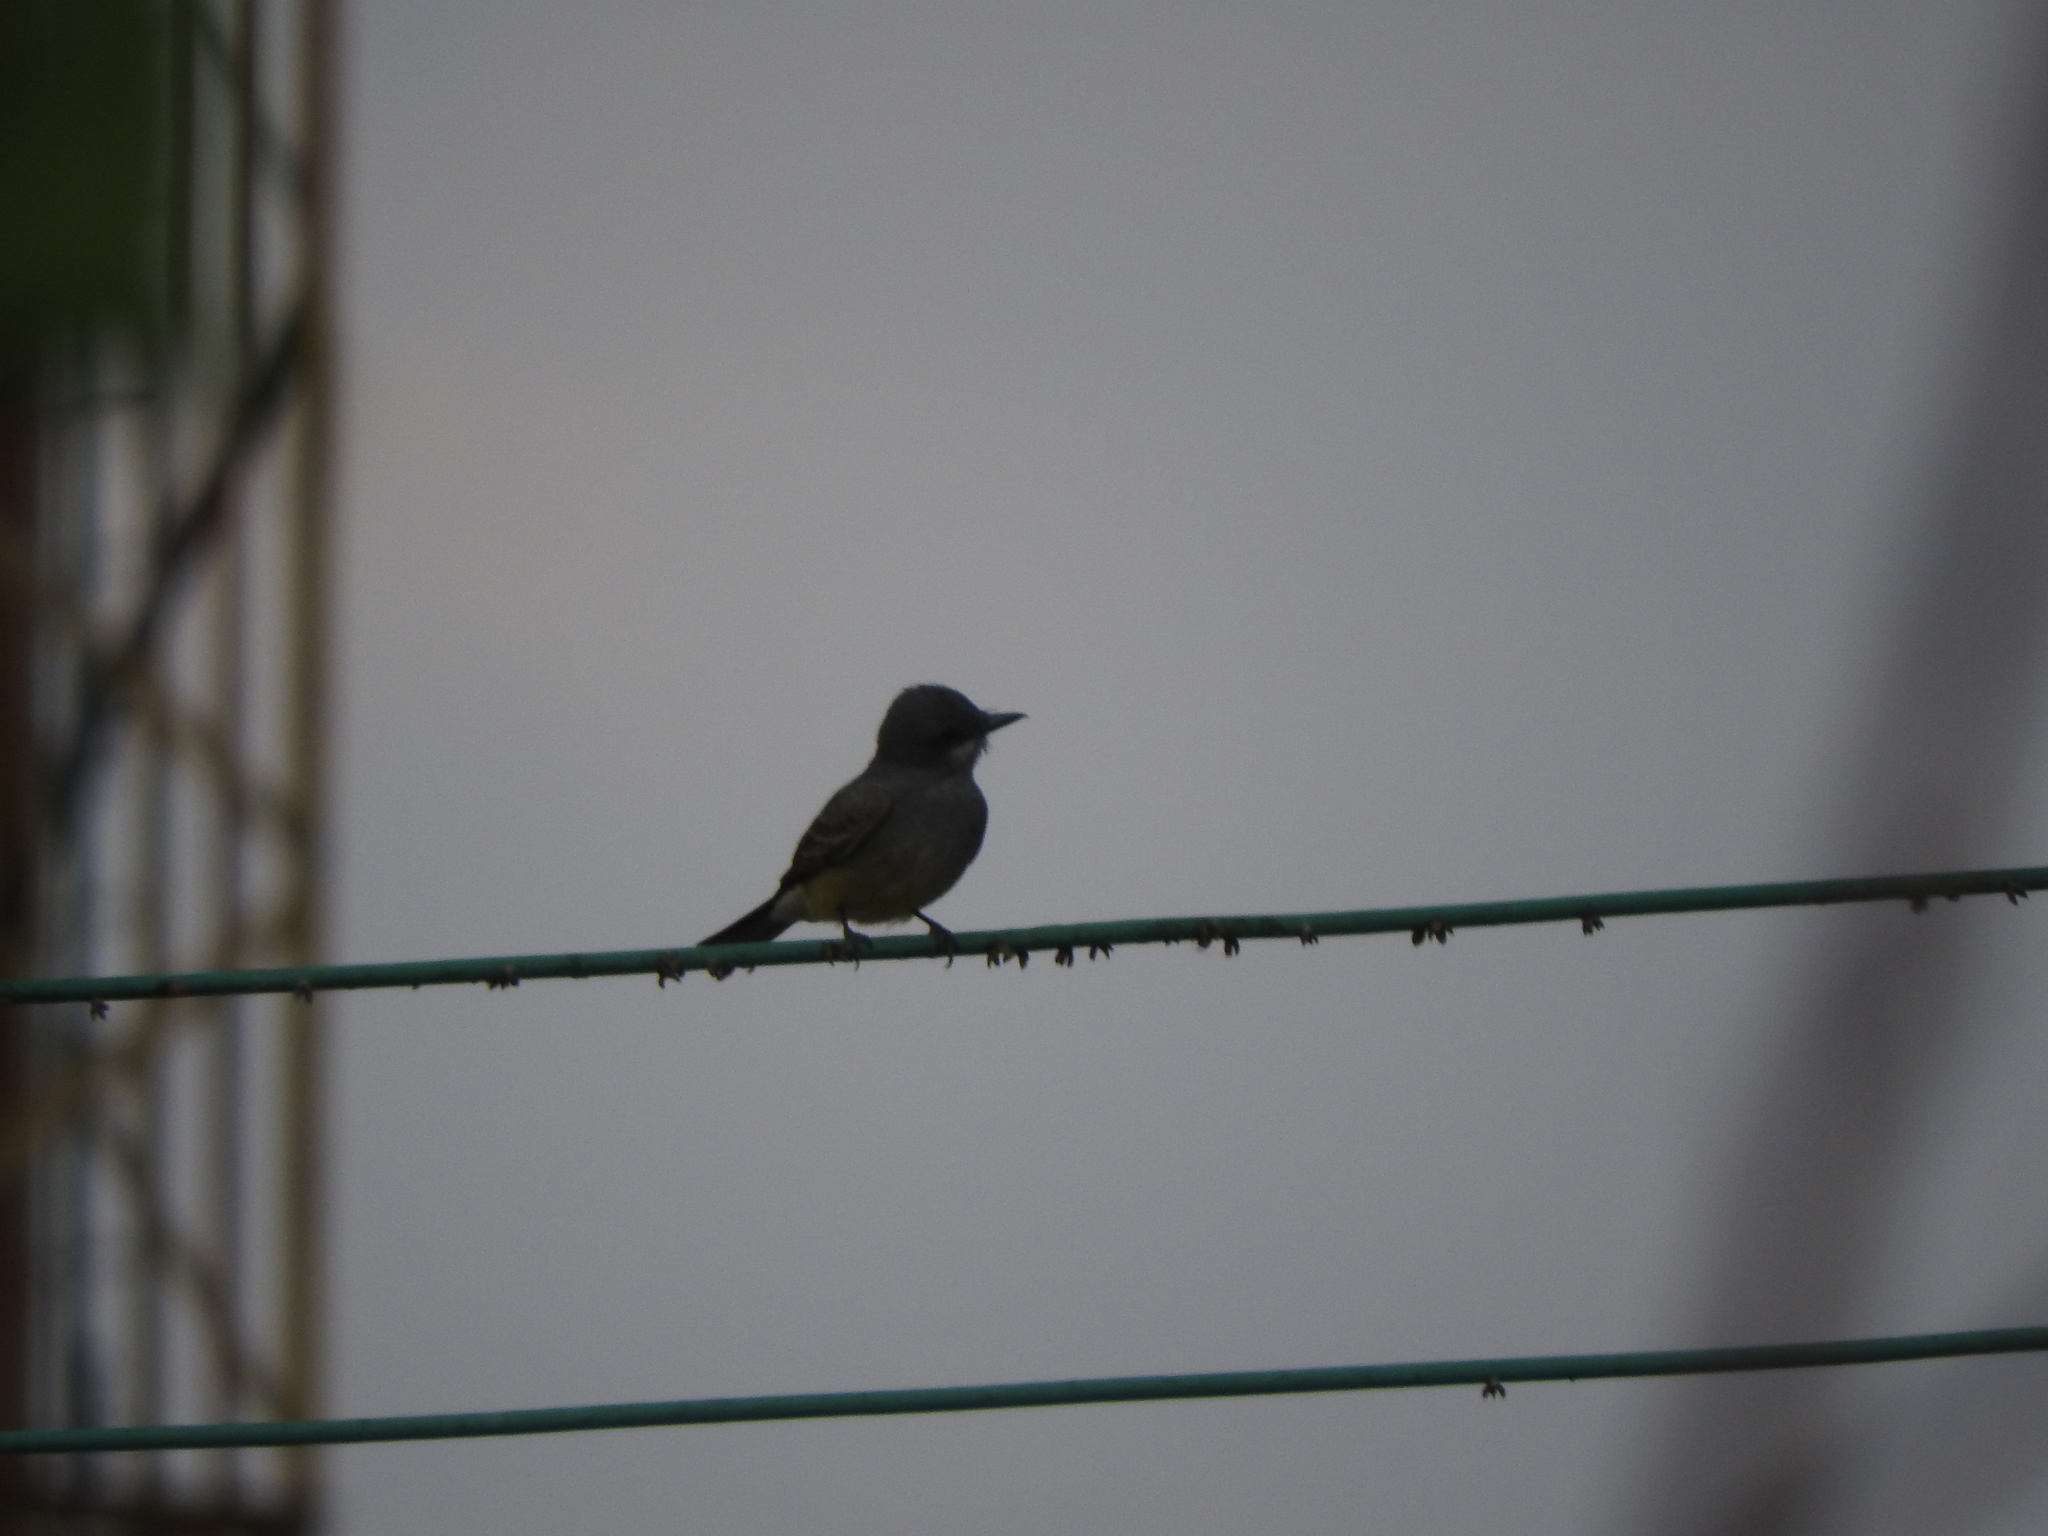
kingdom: Animalia
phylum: Chordata
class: Aves
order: Passeriformes
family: Tyrannidae
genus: Tyrannus
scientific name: Tyrannus vociferans
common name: Cassin's kingbird
